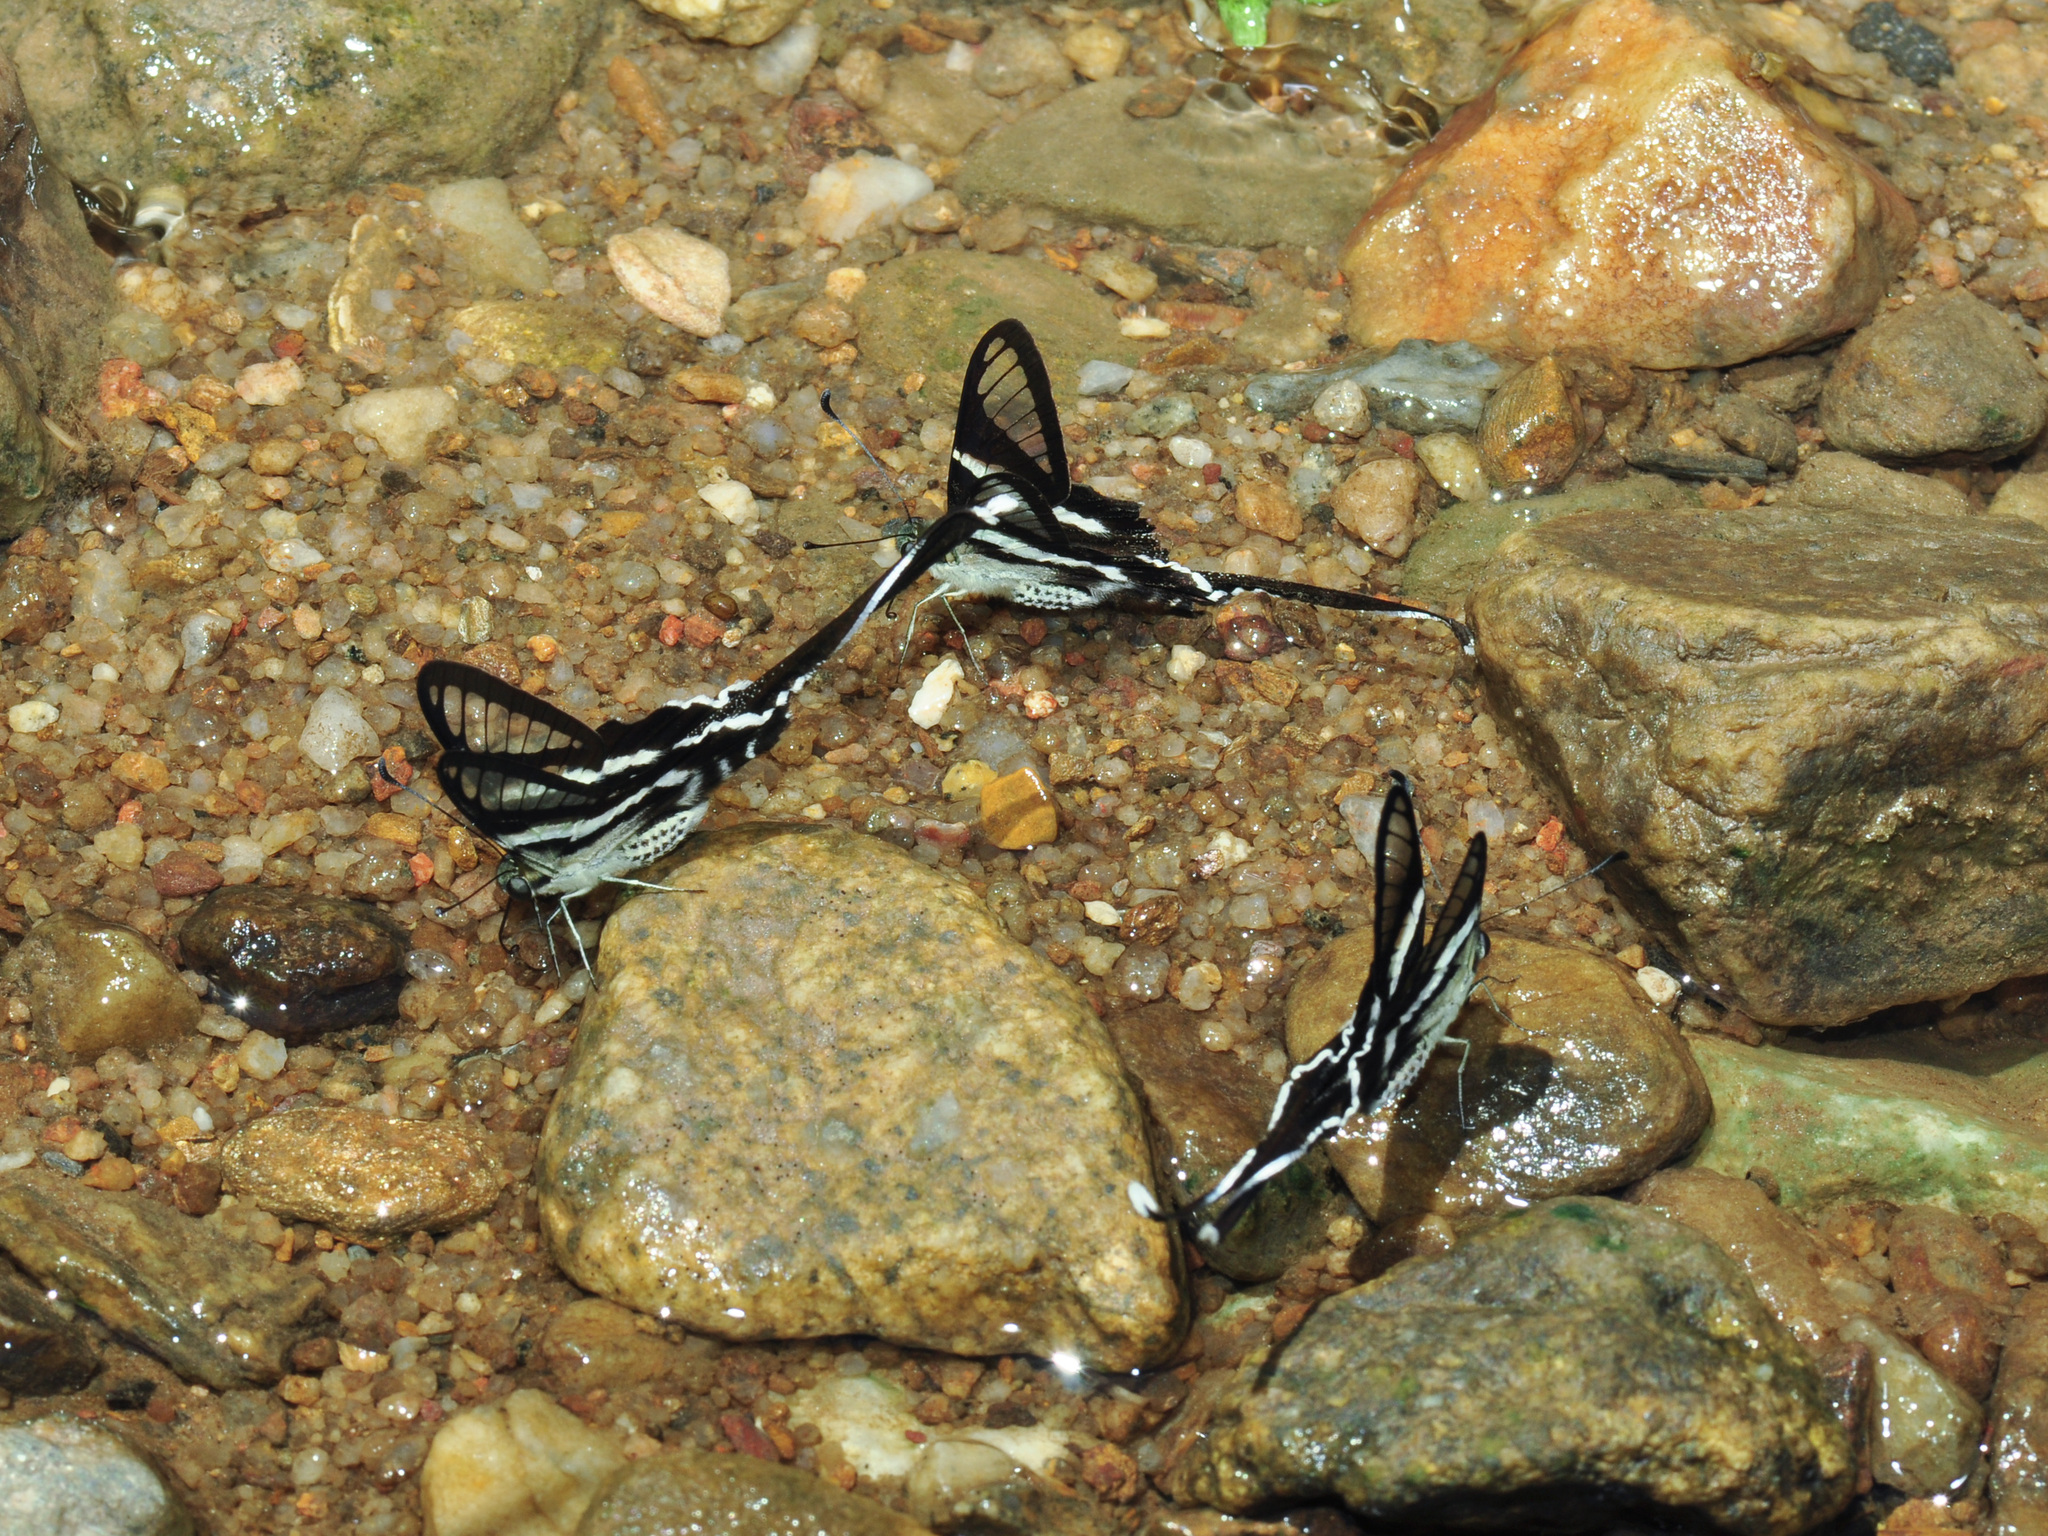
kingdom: Animalia
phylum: Arthropoda
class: Insecta
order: Lepidoptera
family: Papilionidae
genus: Lamproptera
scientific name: Lamproptera curius
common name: White dragontail
